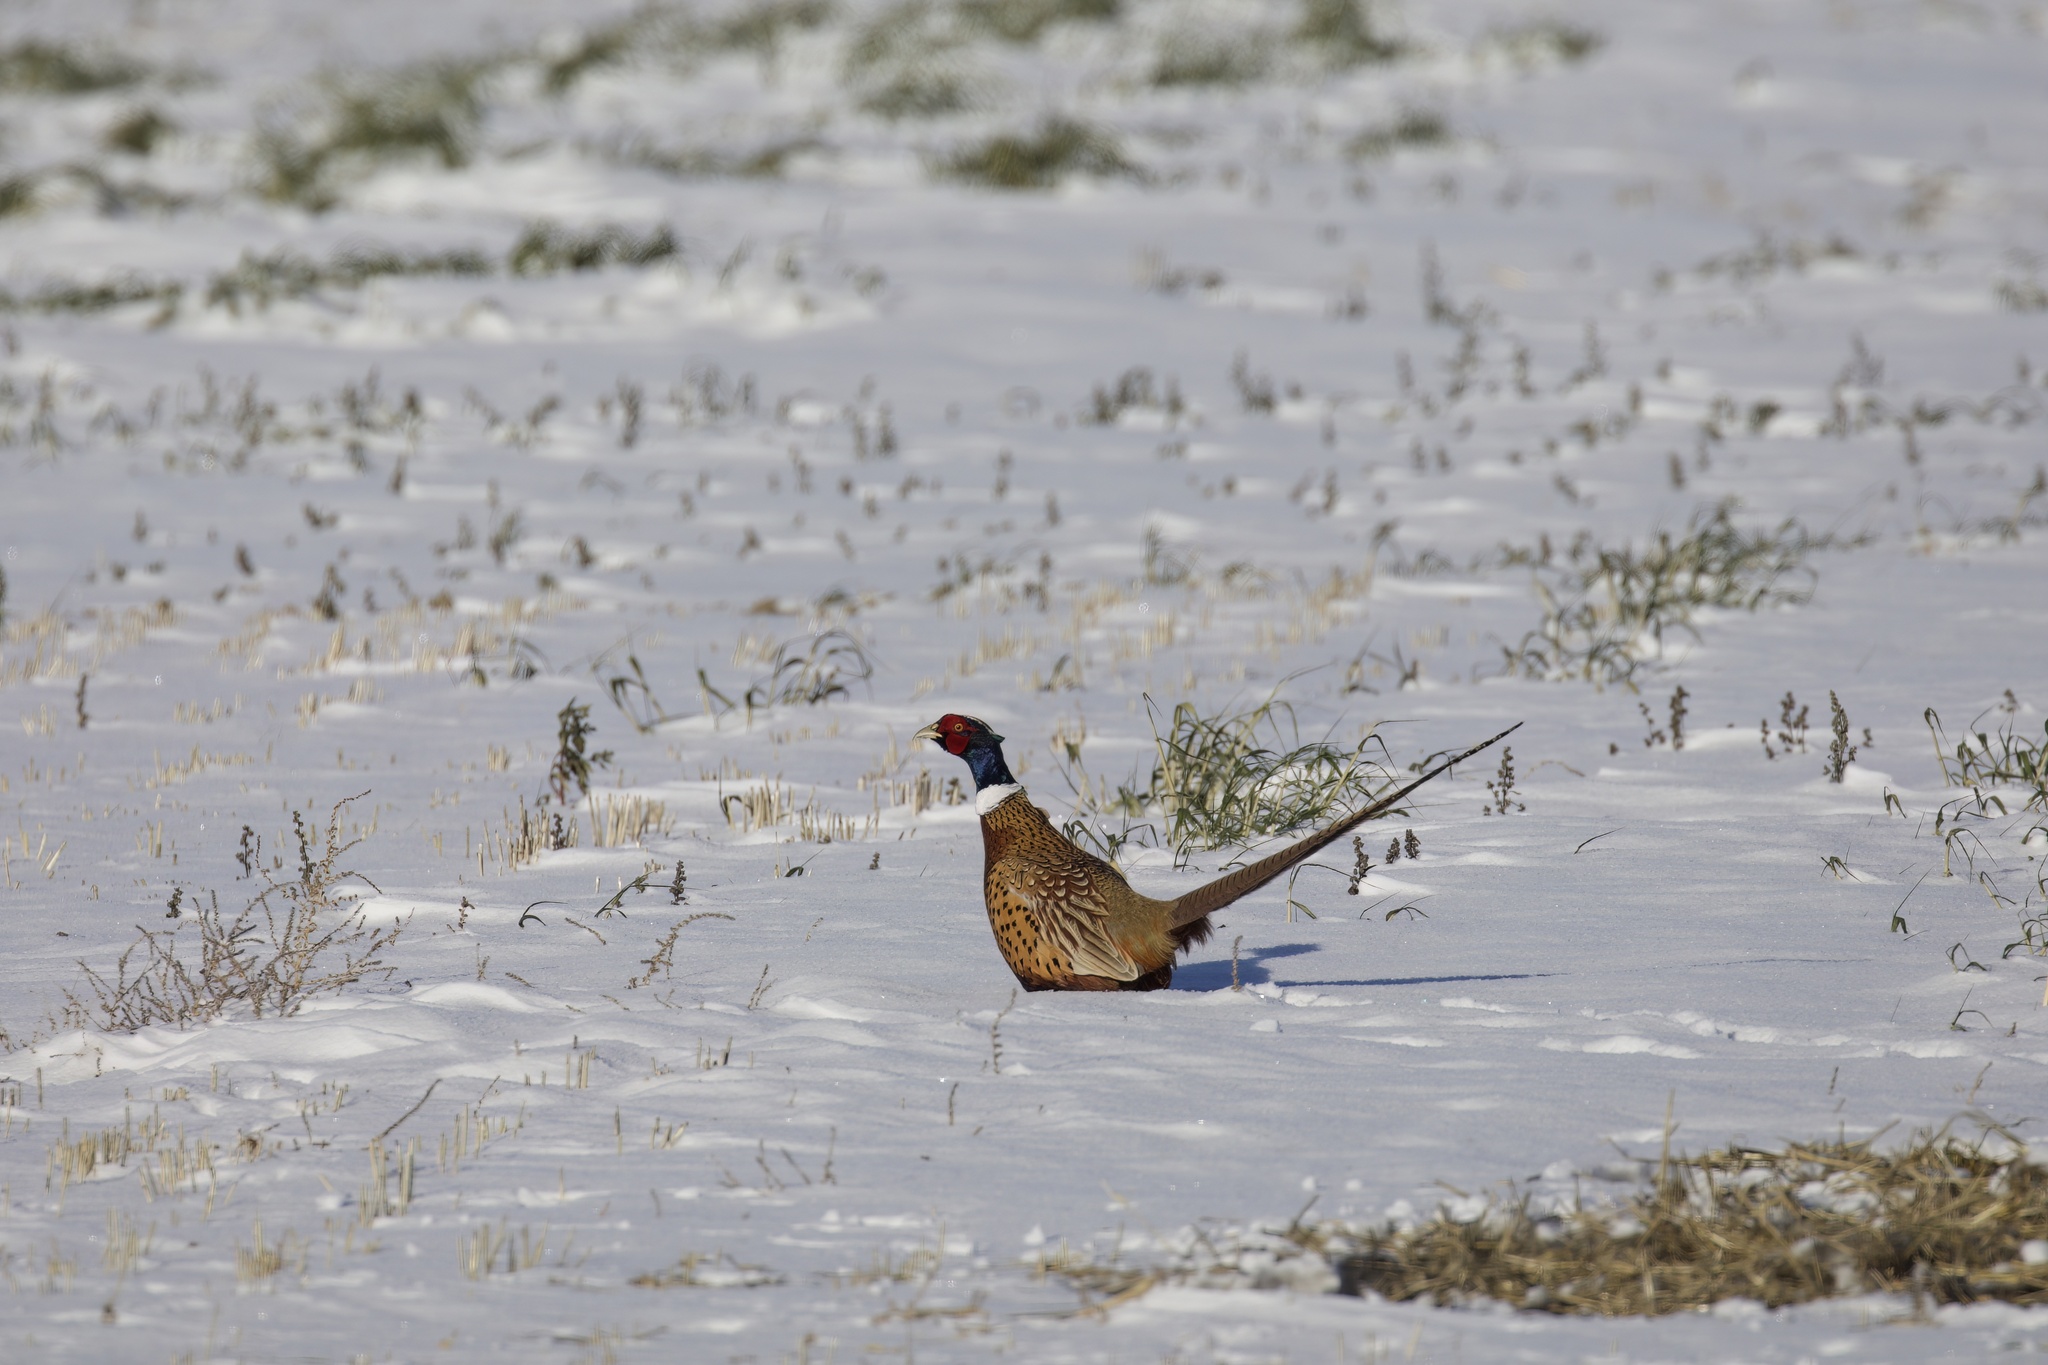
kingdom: Animalia
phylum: Chordata
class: Aves
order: Galliformes
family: Phasianidae
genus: Phasianus
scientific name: Phasianus colchicus
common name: Common pheasant
